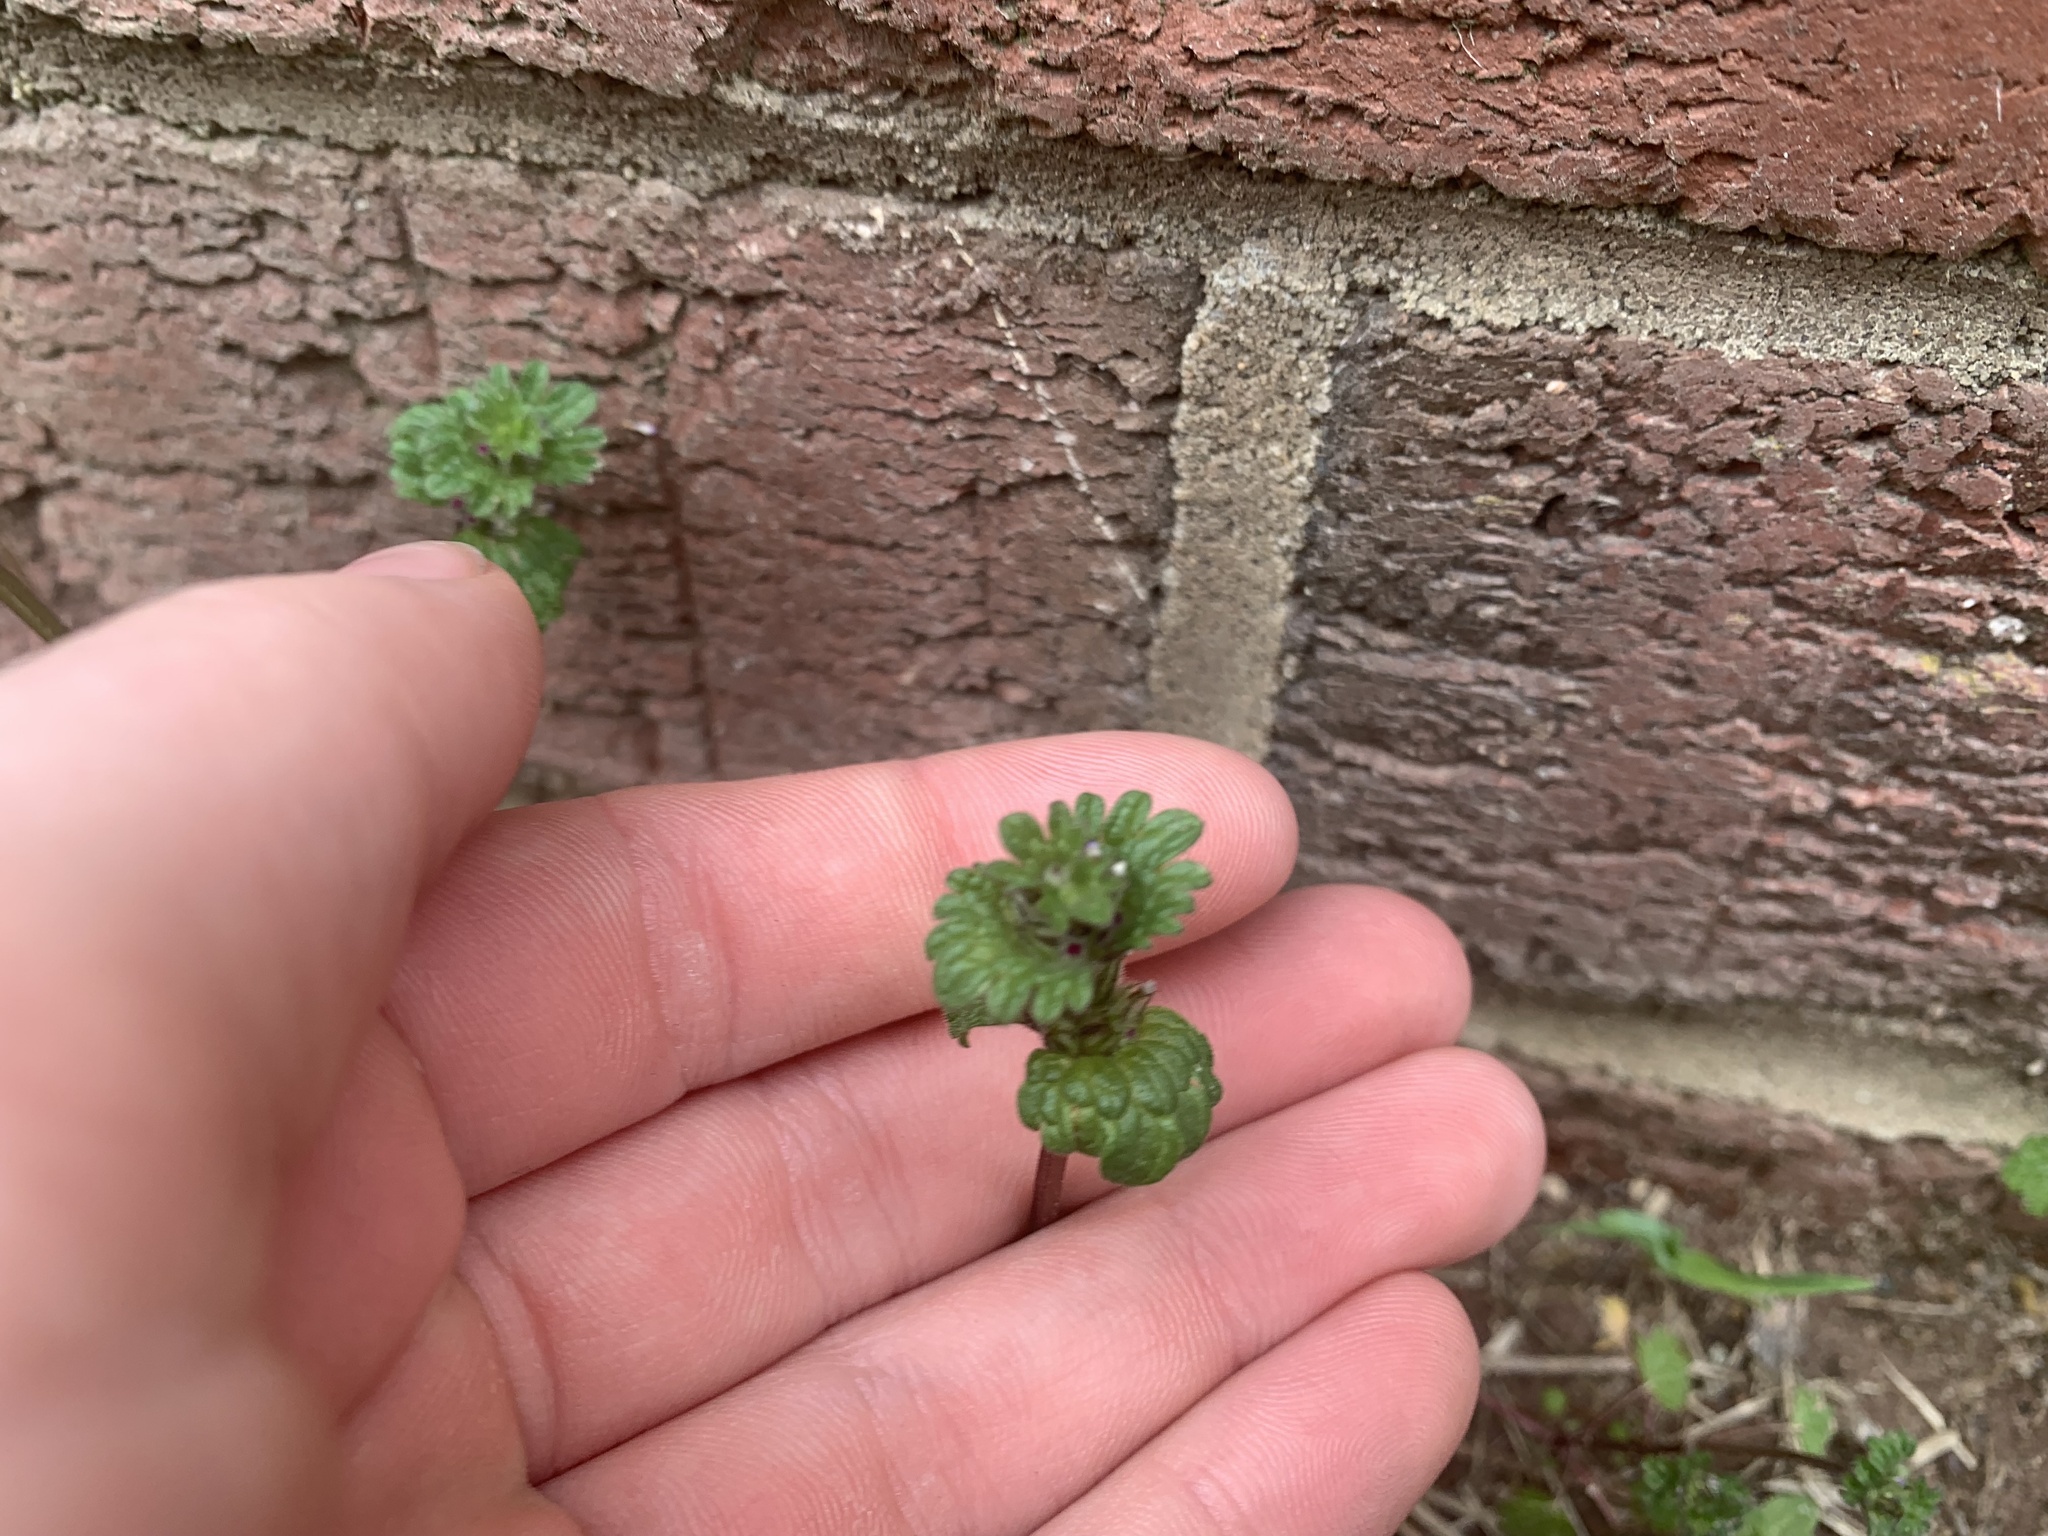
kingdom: Plantae
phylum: Tracheophyta
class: Magnoliopsida
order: Lamiales
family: Lamiaceae
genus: Lamium
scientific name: Lamium amplexicaule
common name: Henbit dead-nettle
